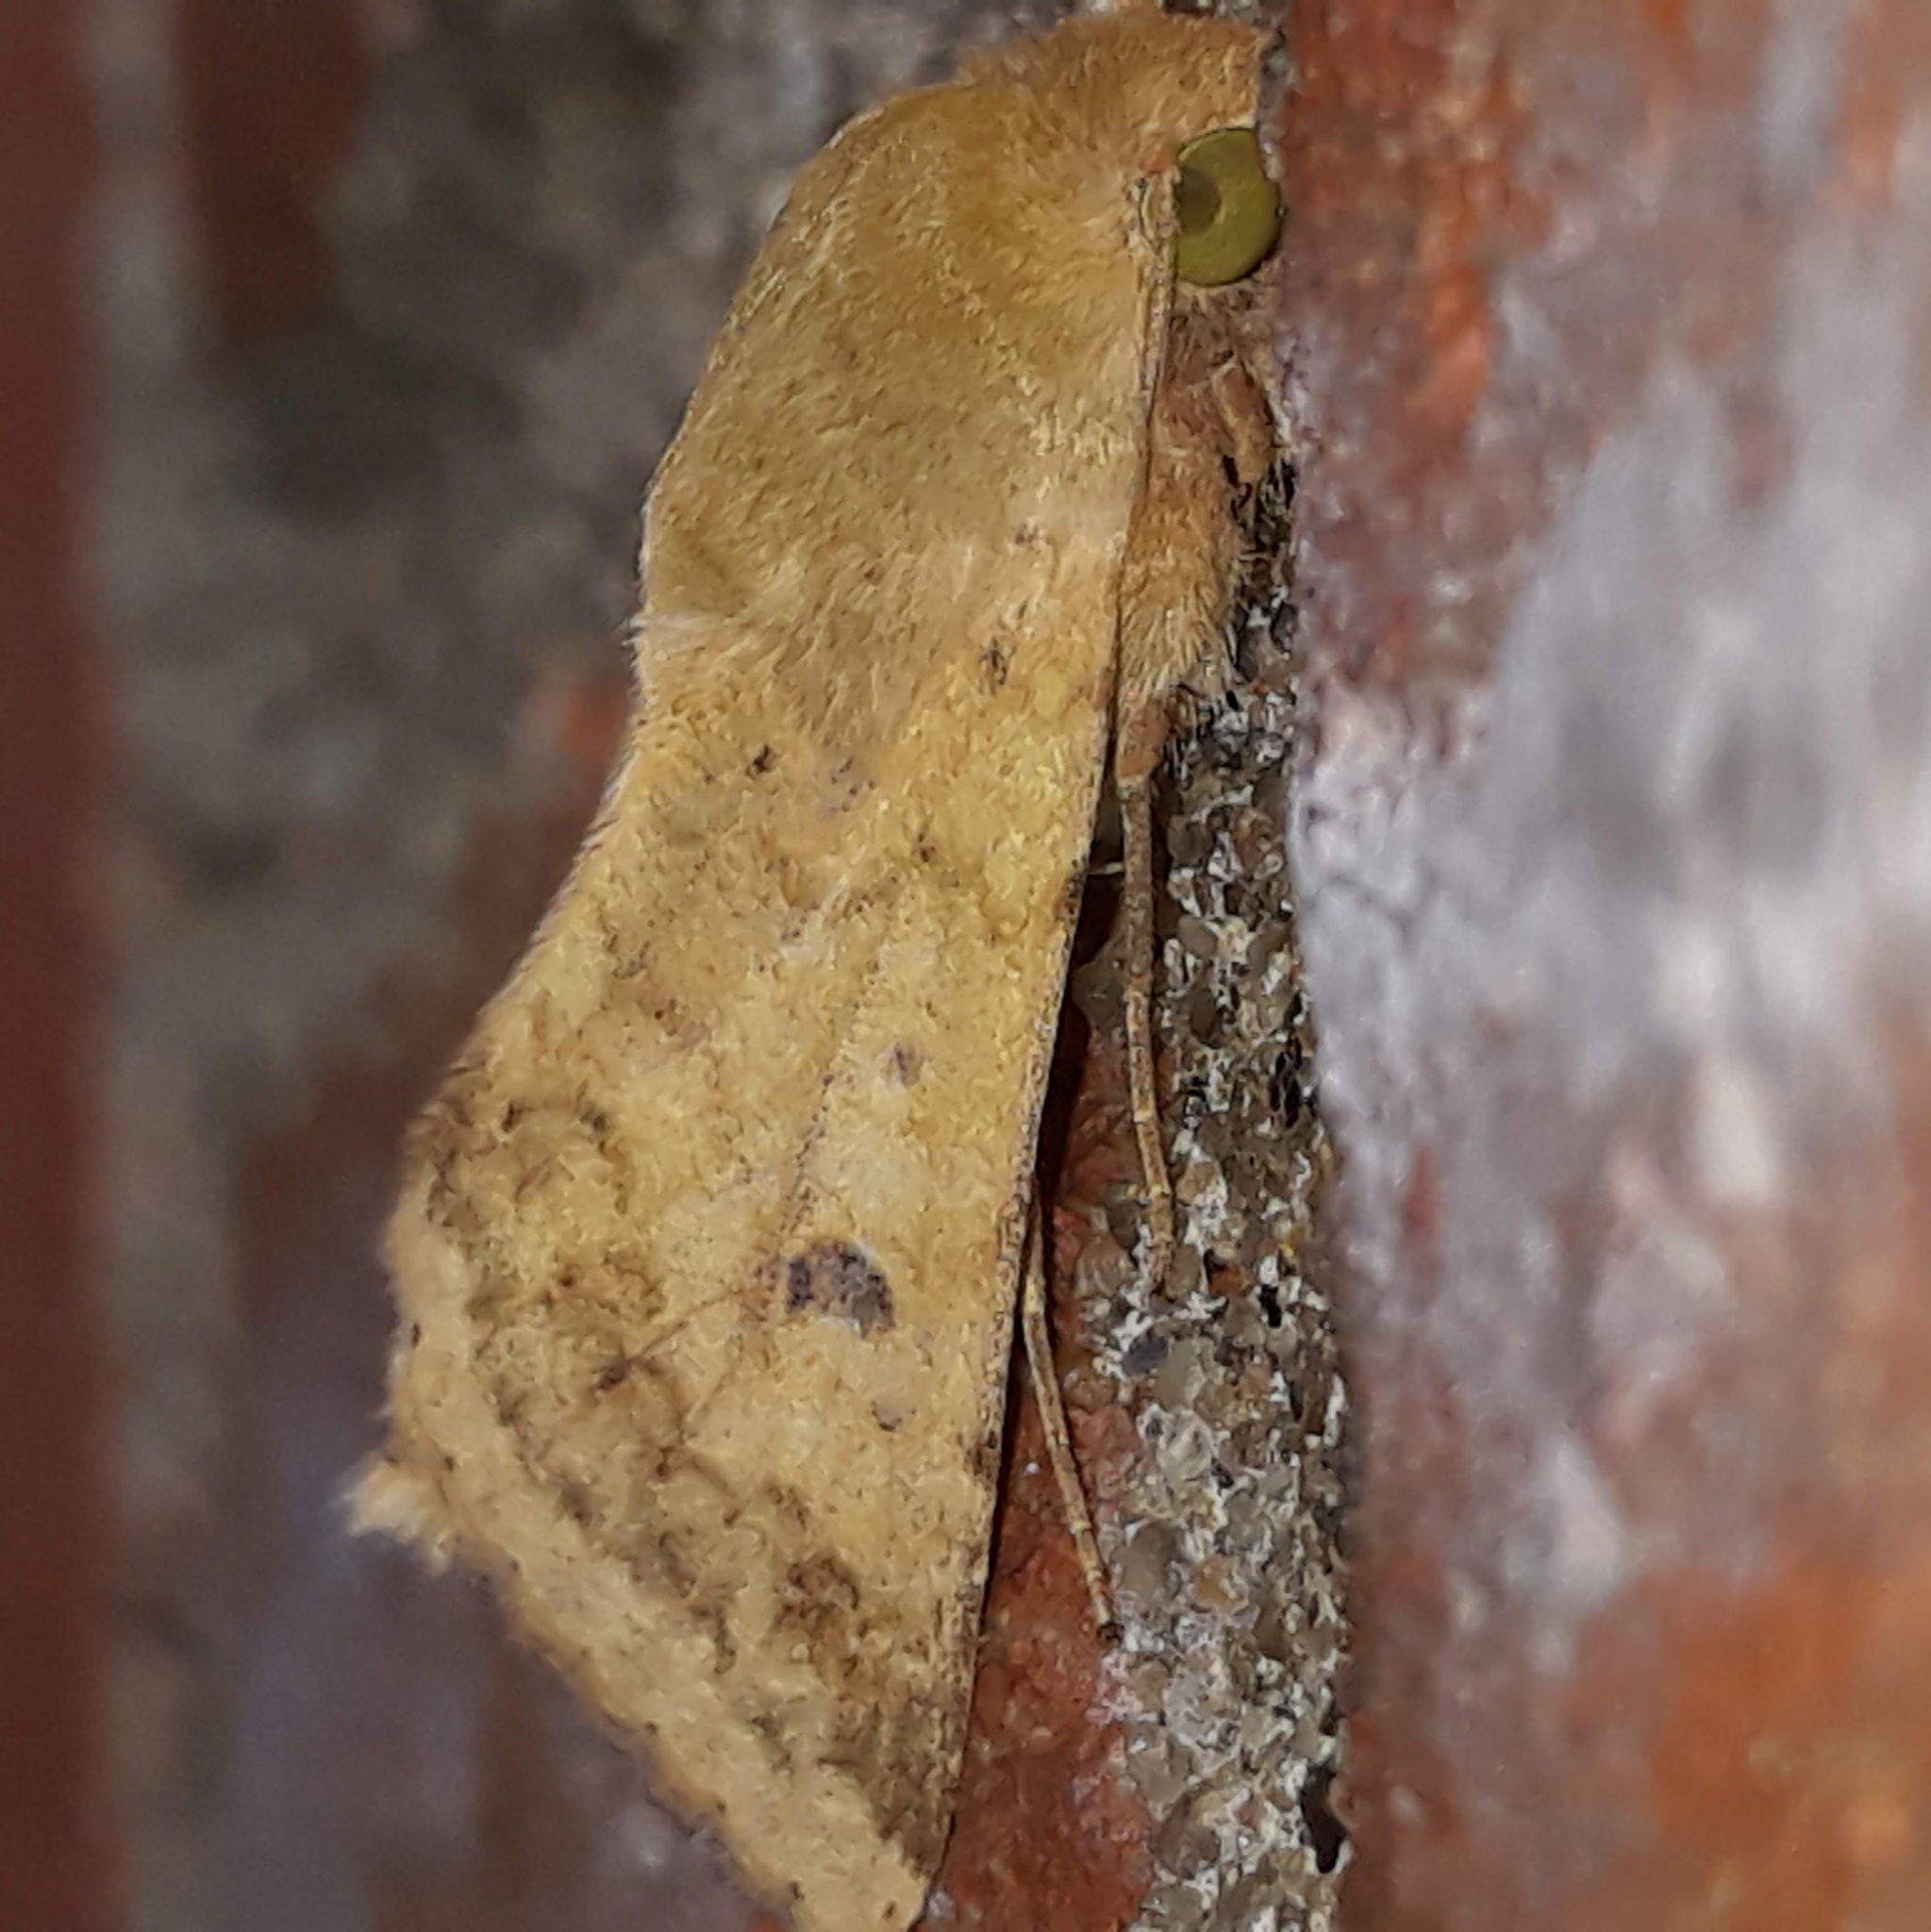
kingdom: Animalia
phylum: Arthropoda
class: Insecta
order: Lepidoptera
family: Noctuidae
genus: Helicoverpa
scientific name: Helicoverpa zea
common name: Bollworm
